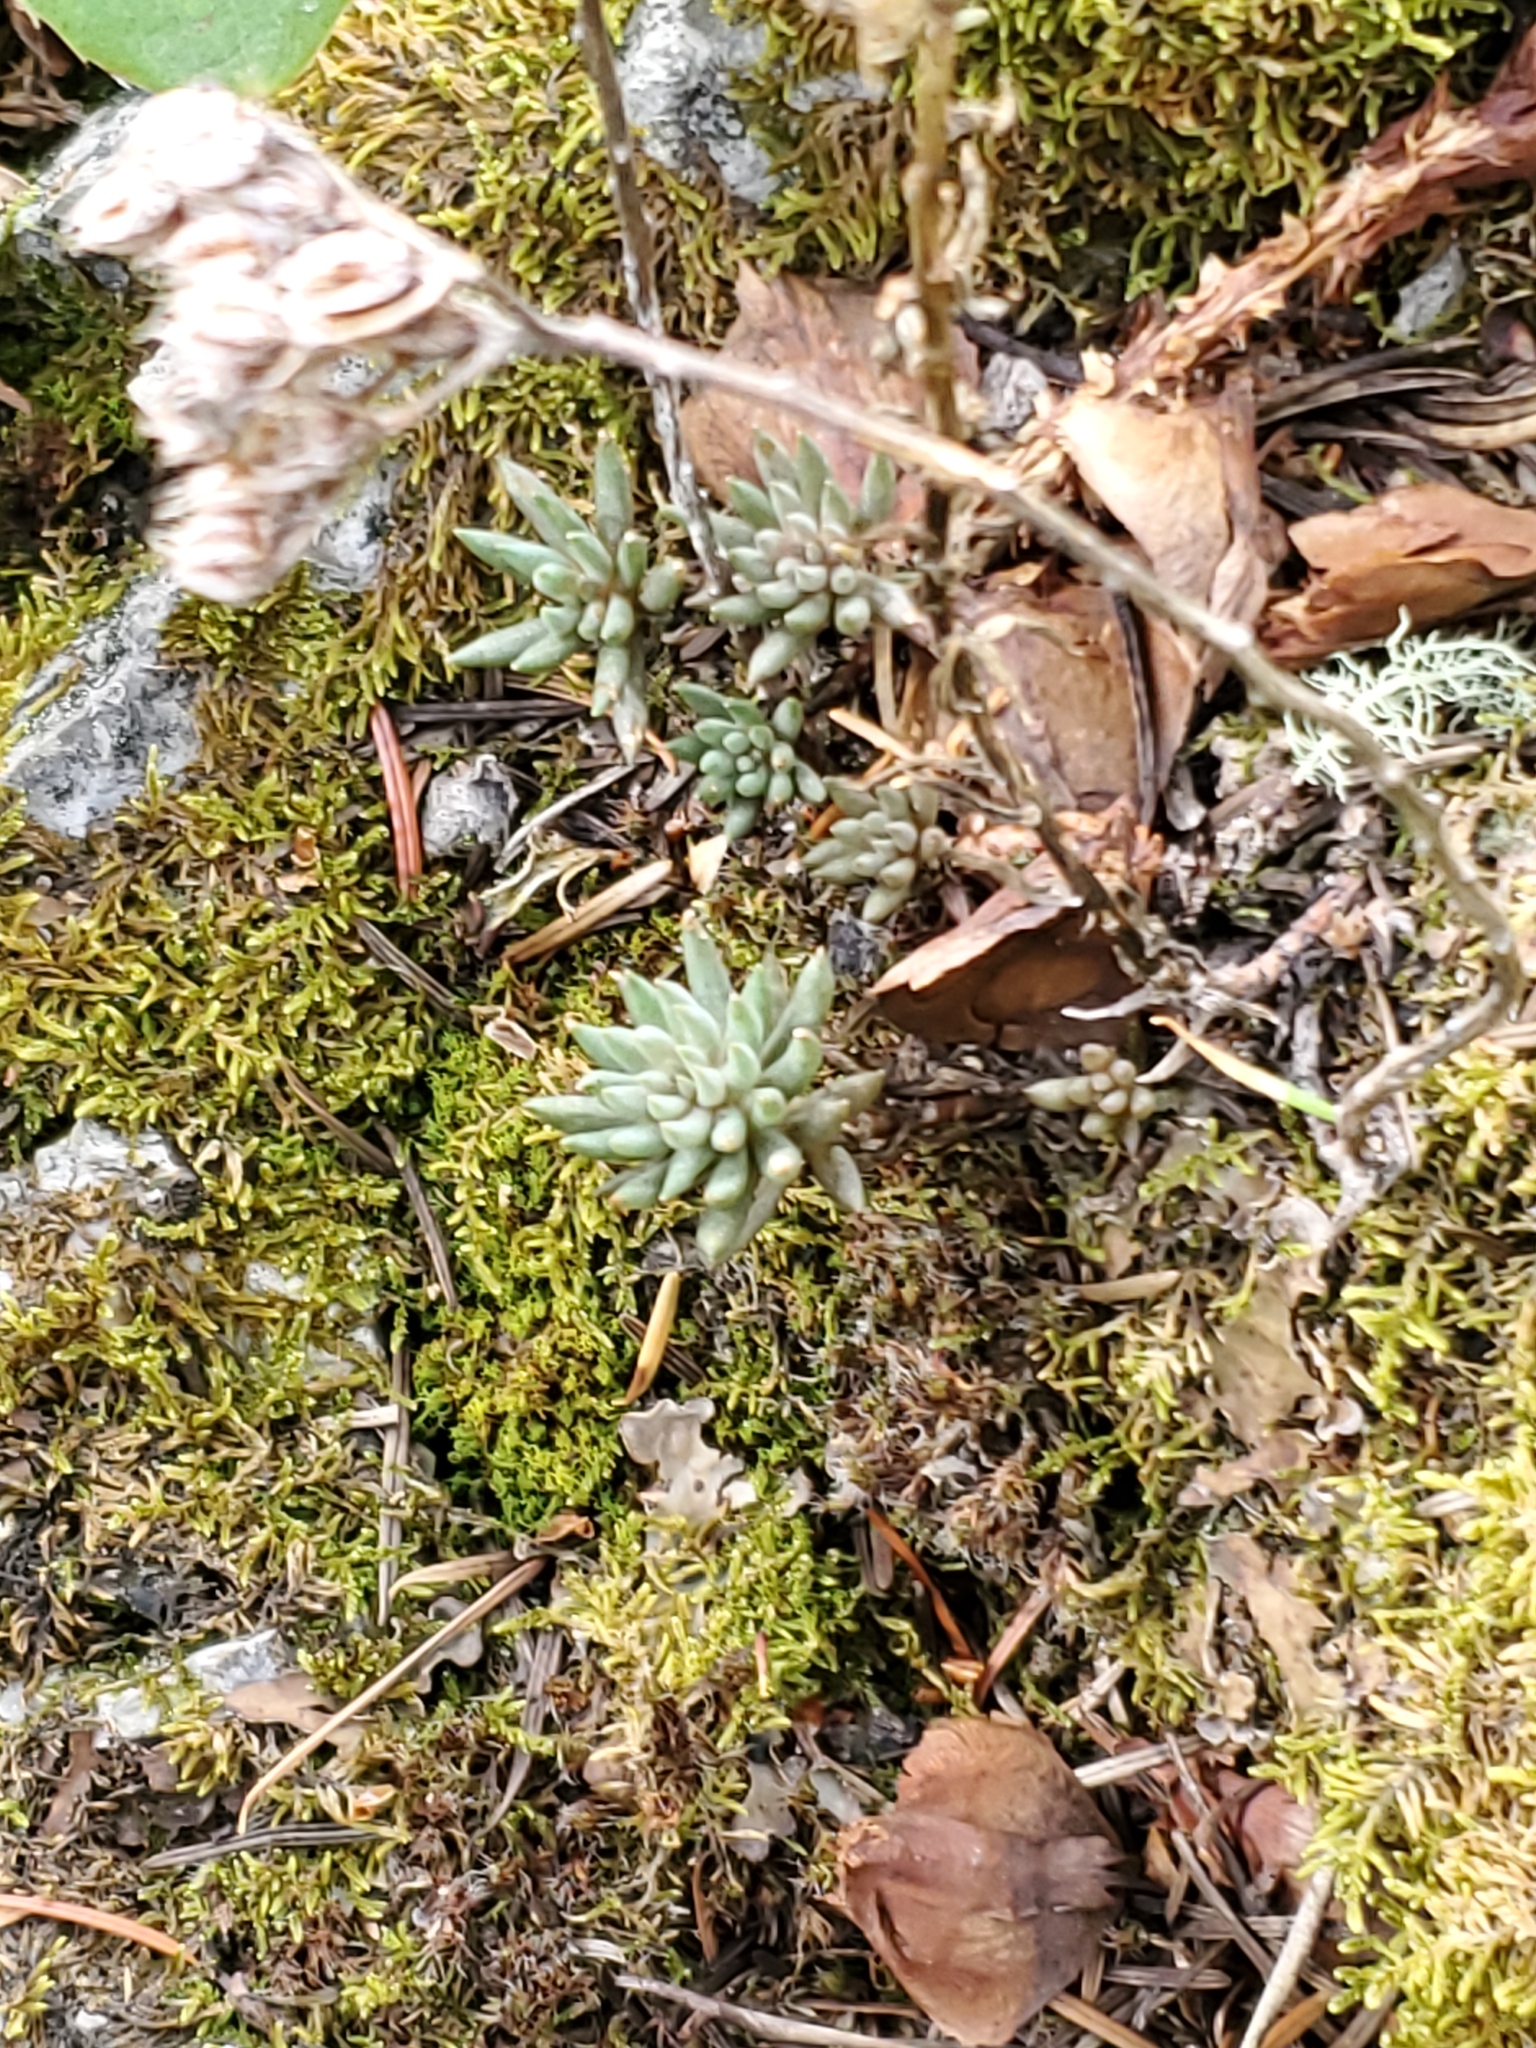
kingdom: Plantae
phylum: Tracheophyta
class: Magnoliopsida
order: Saxifragales
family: Crassulaceae
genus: Sedum
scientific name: Sedum lanceolatum
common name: Common stonecrop
